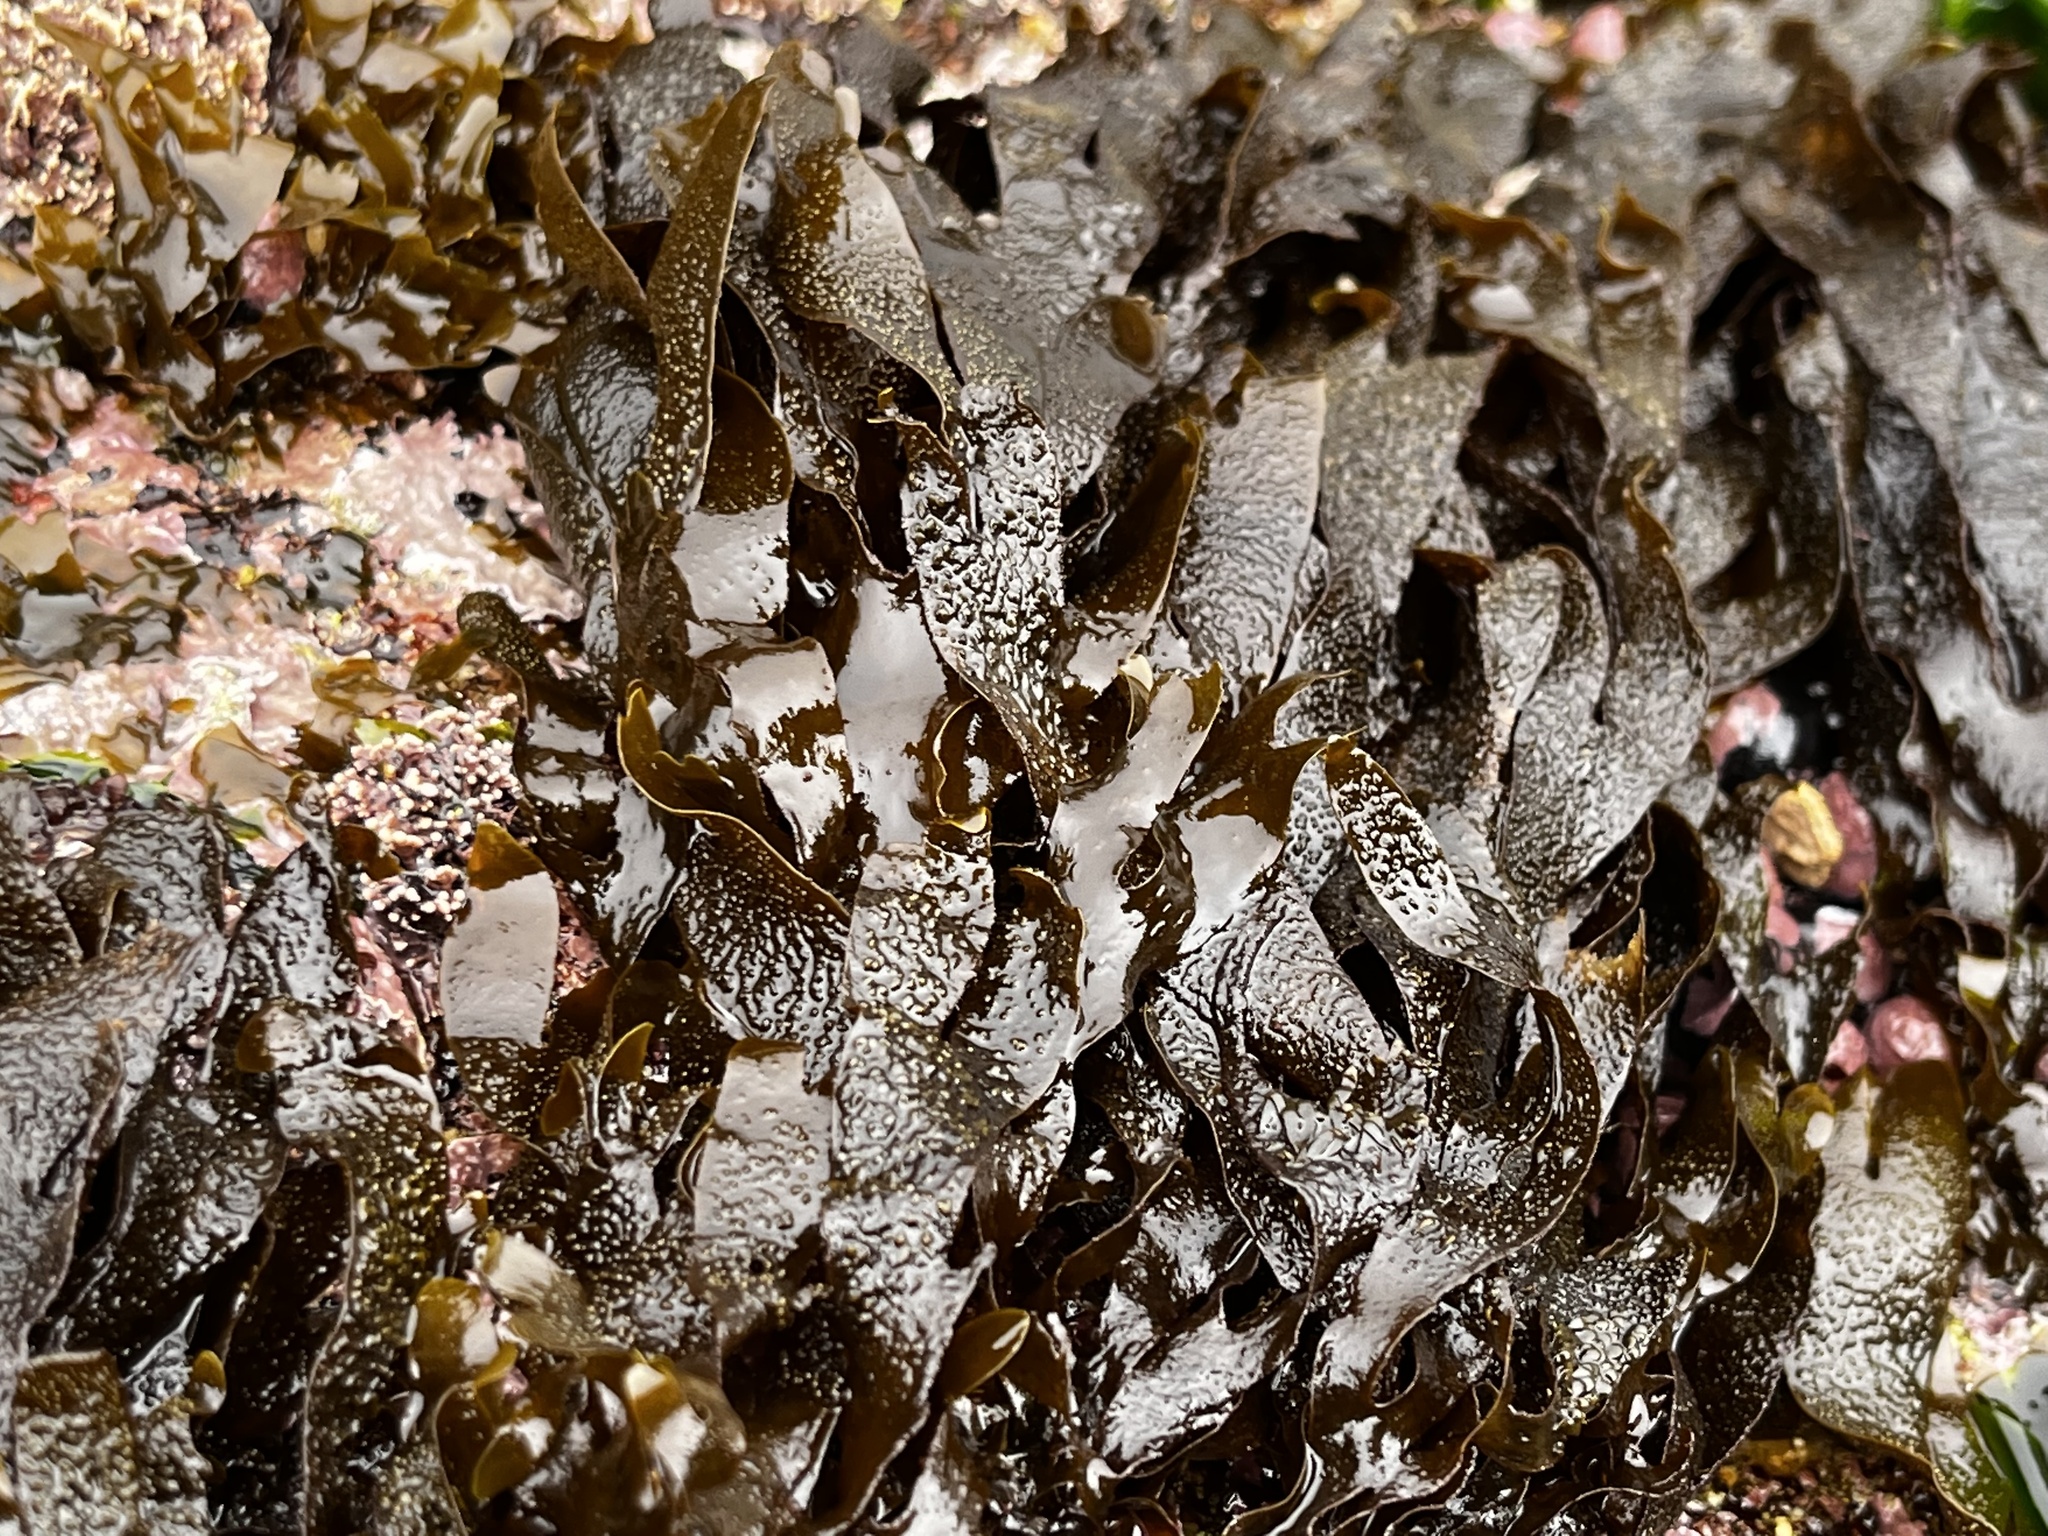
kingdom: Chromista
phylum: Ochrophyta
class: Phaeophyceae
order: Dictyotales
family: Dictyotaceae
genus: Dictyota
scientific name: Dictyota kunthii
